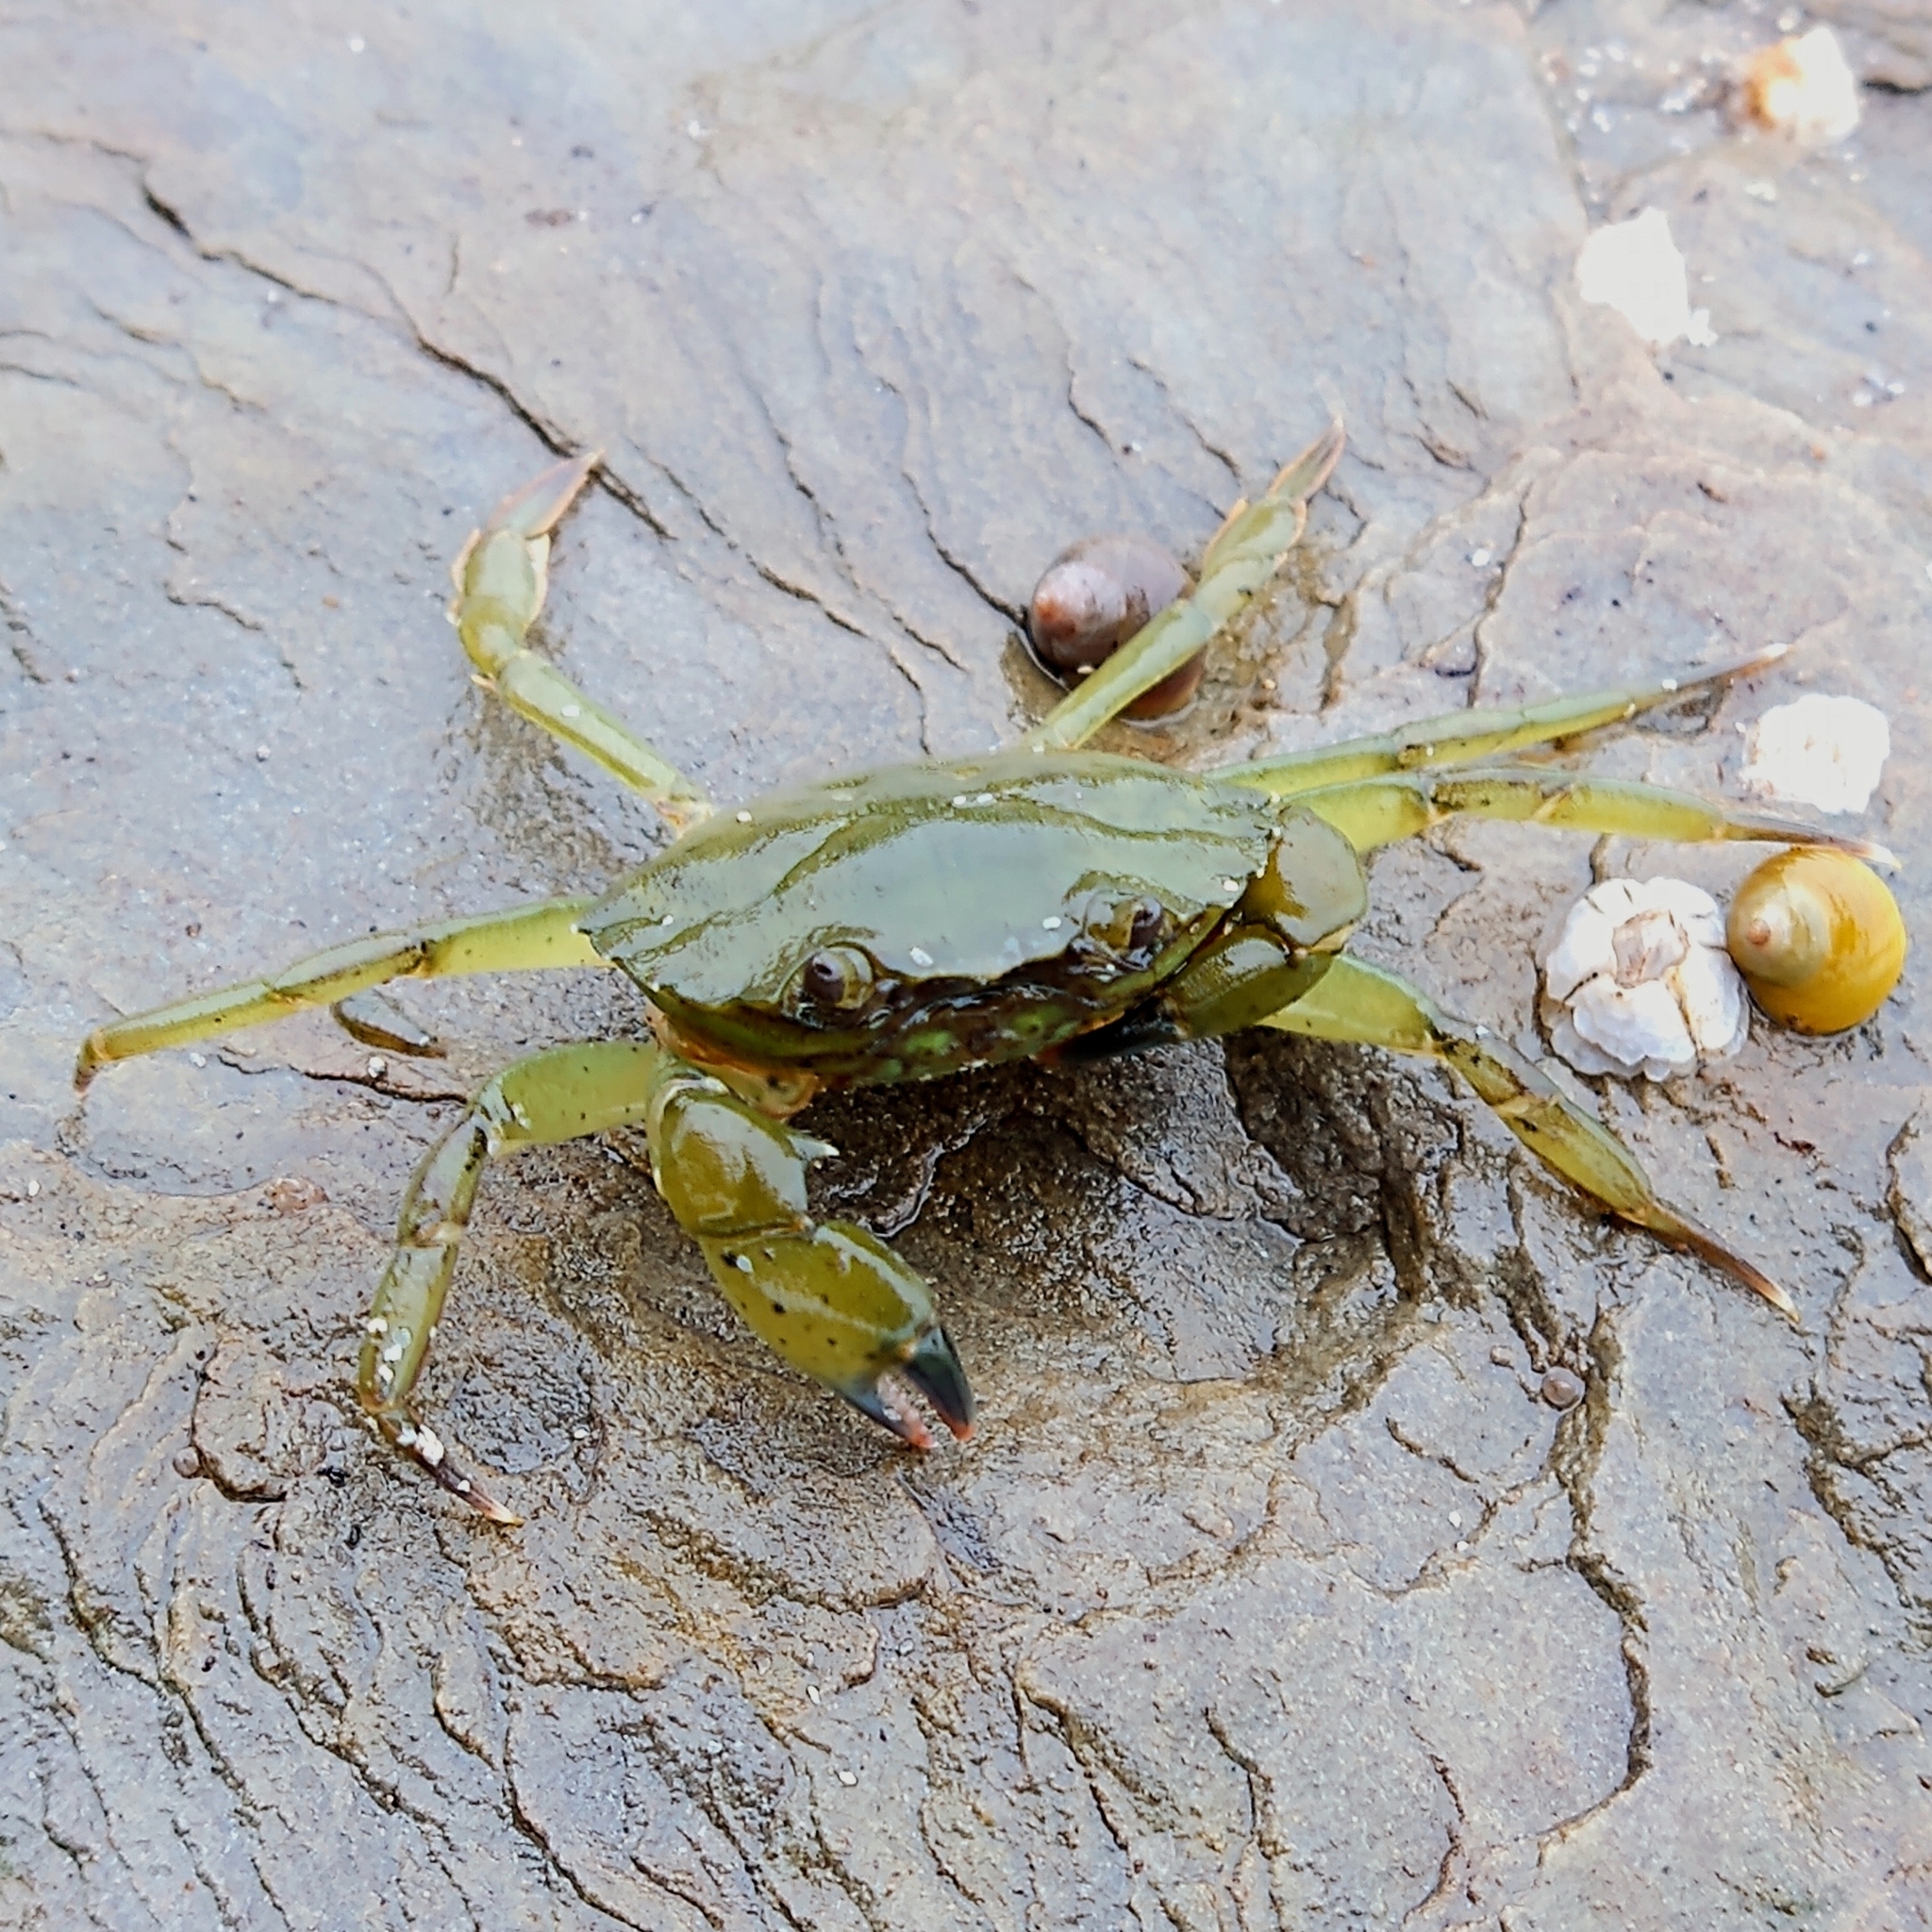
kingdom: Animalia
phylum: Arthropoda
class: Malacostraca
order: Decapoda
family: Carcinidae
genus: Carcinus
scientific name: Carcinus maenas
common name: European green crab
